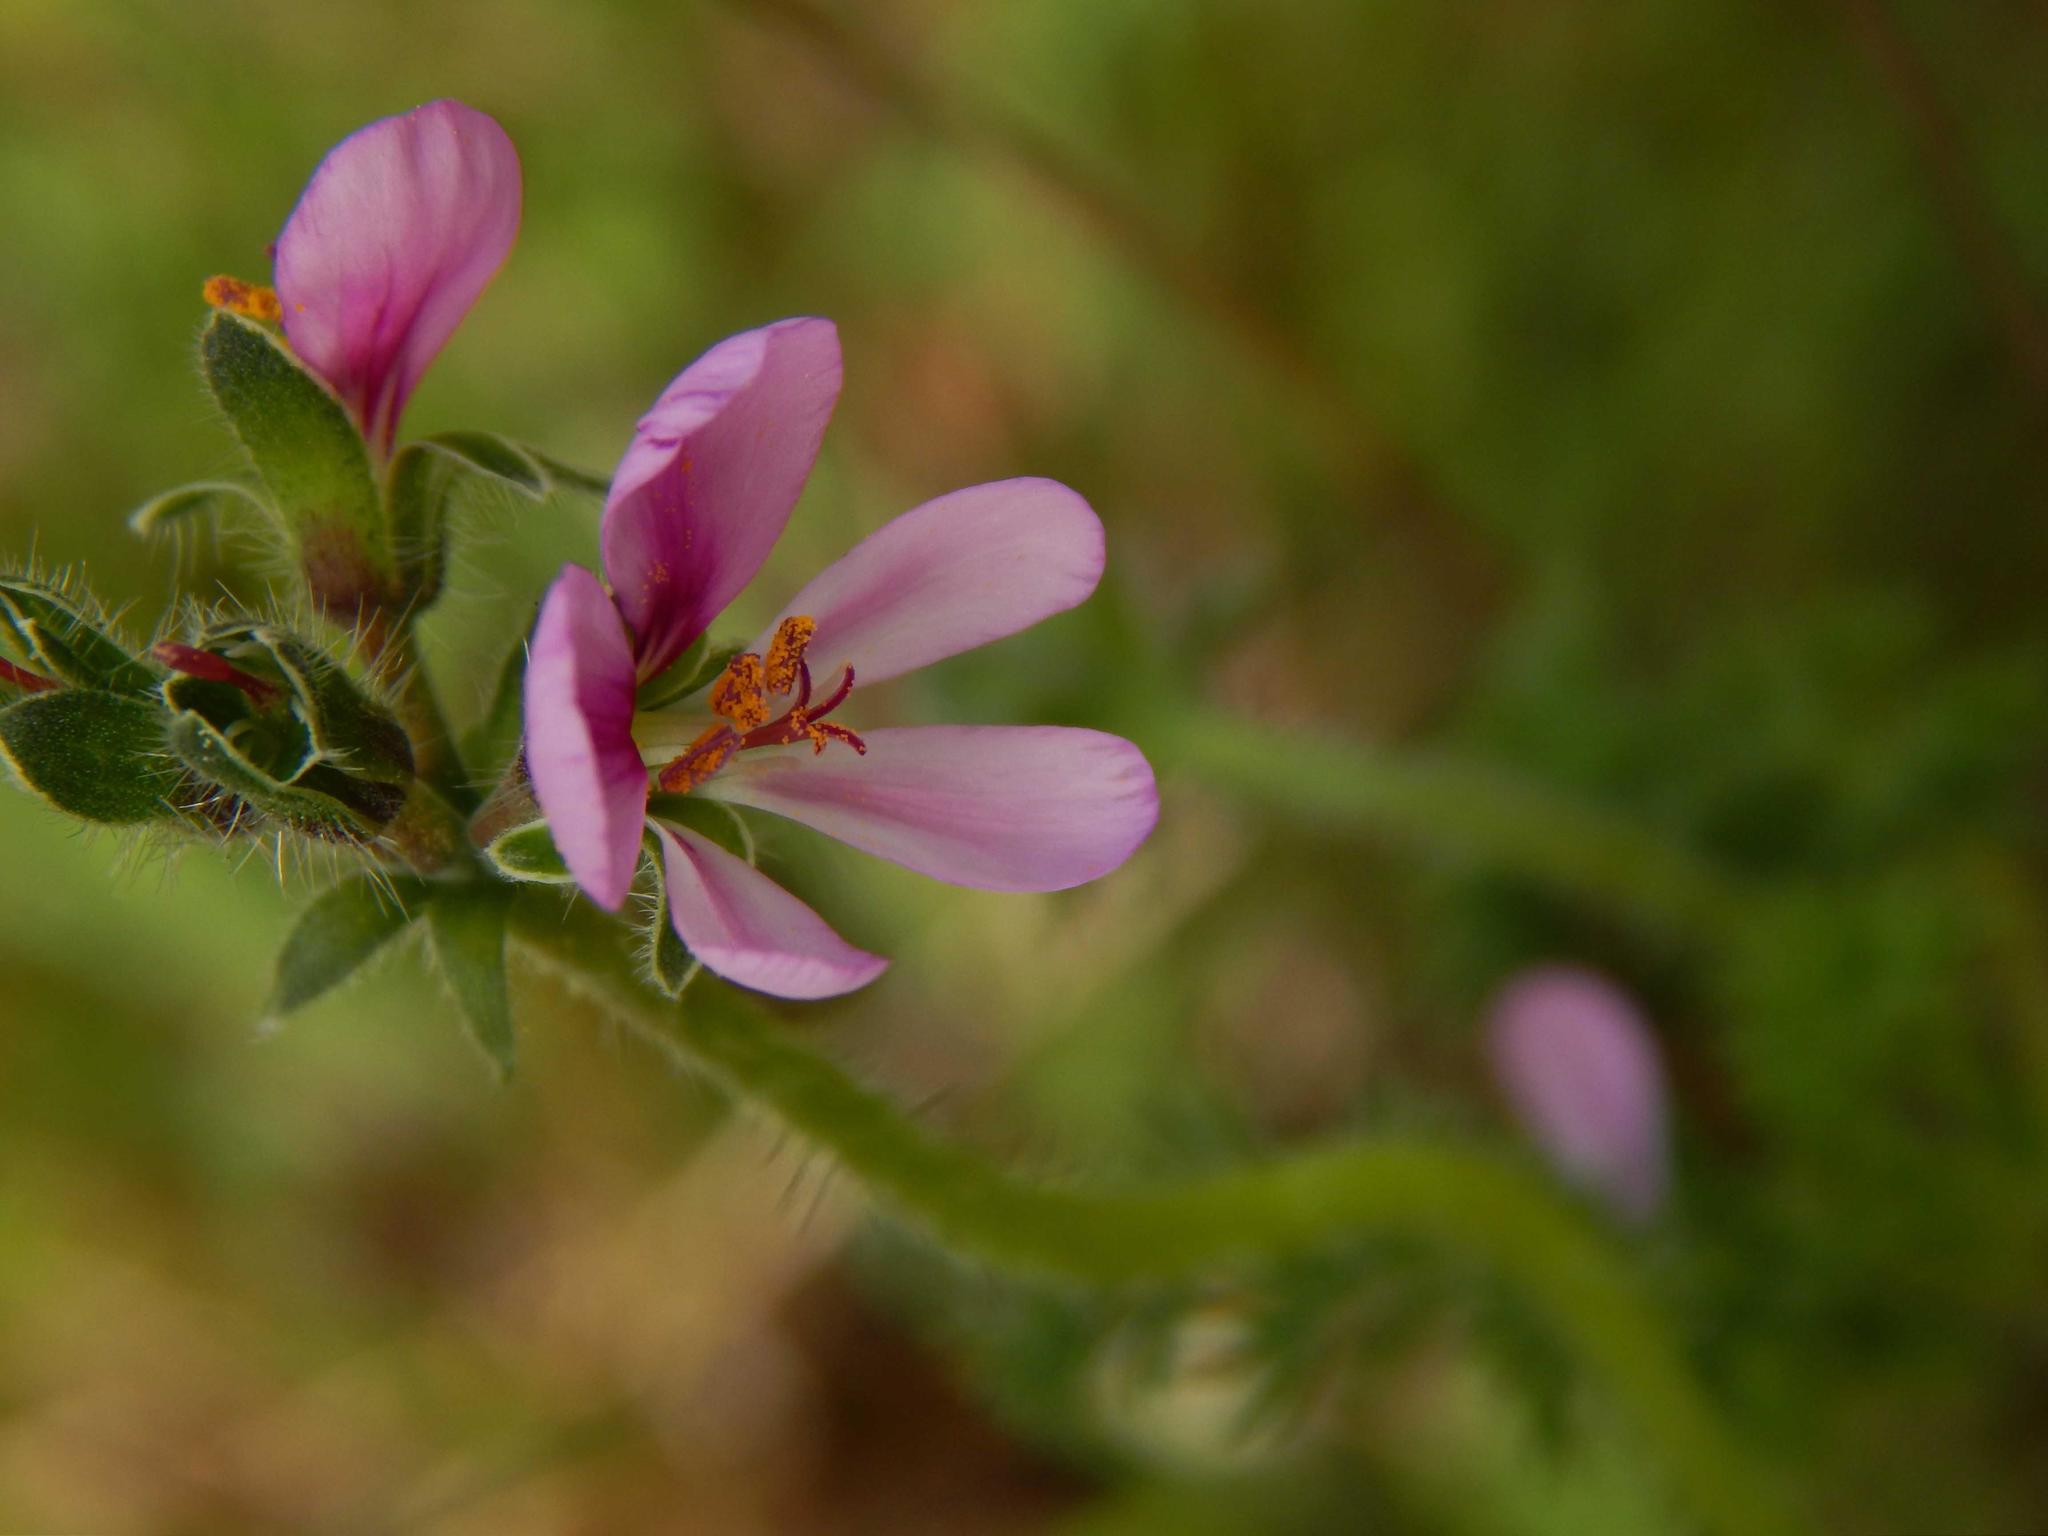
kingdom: Plantae
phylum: Tracheophyta
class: Magnoliopsida
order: Geraniales
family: Geraniaceae
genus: Pelargonium
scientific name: Pelargonium hirtum
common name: Fine-leaf pelargonium
